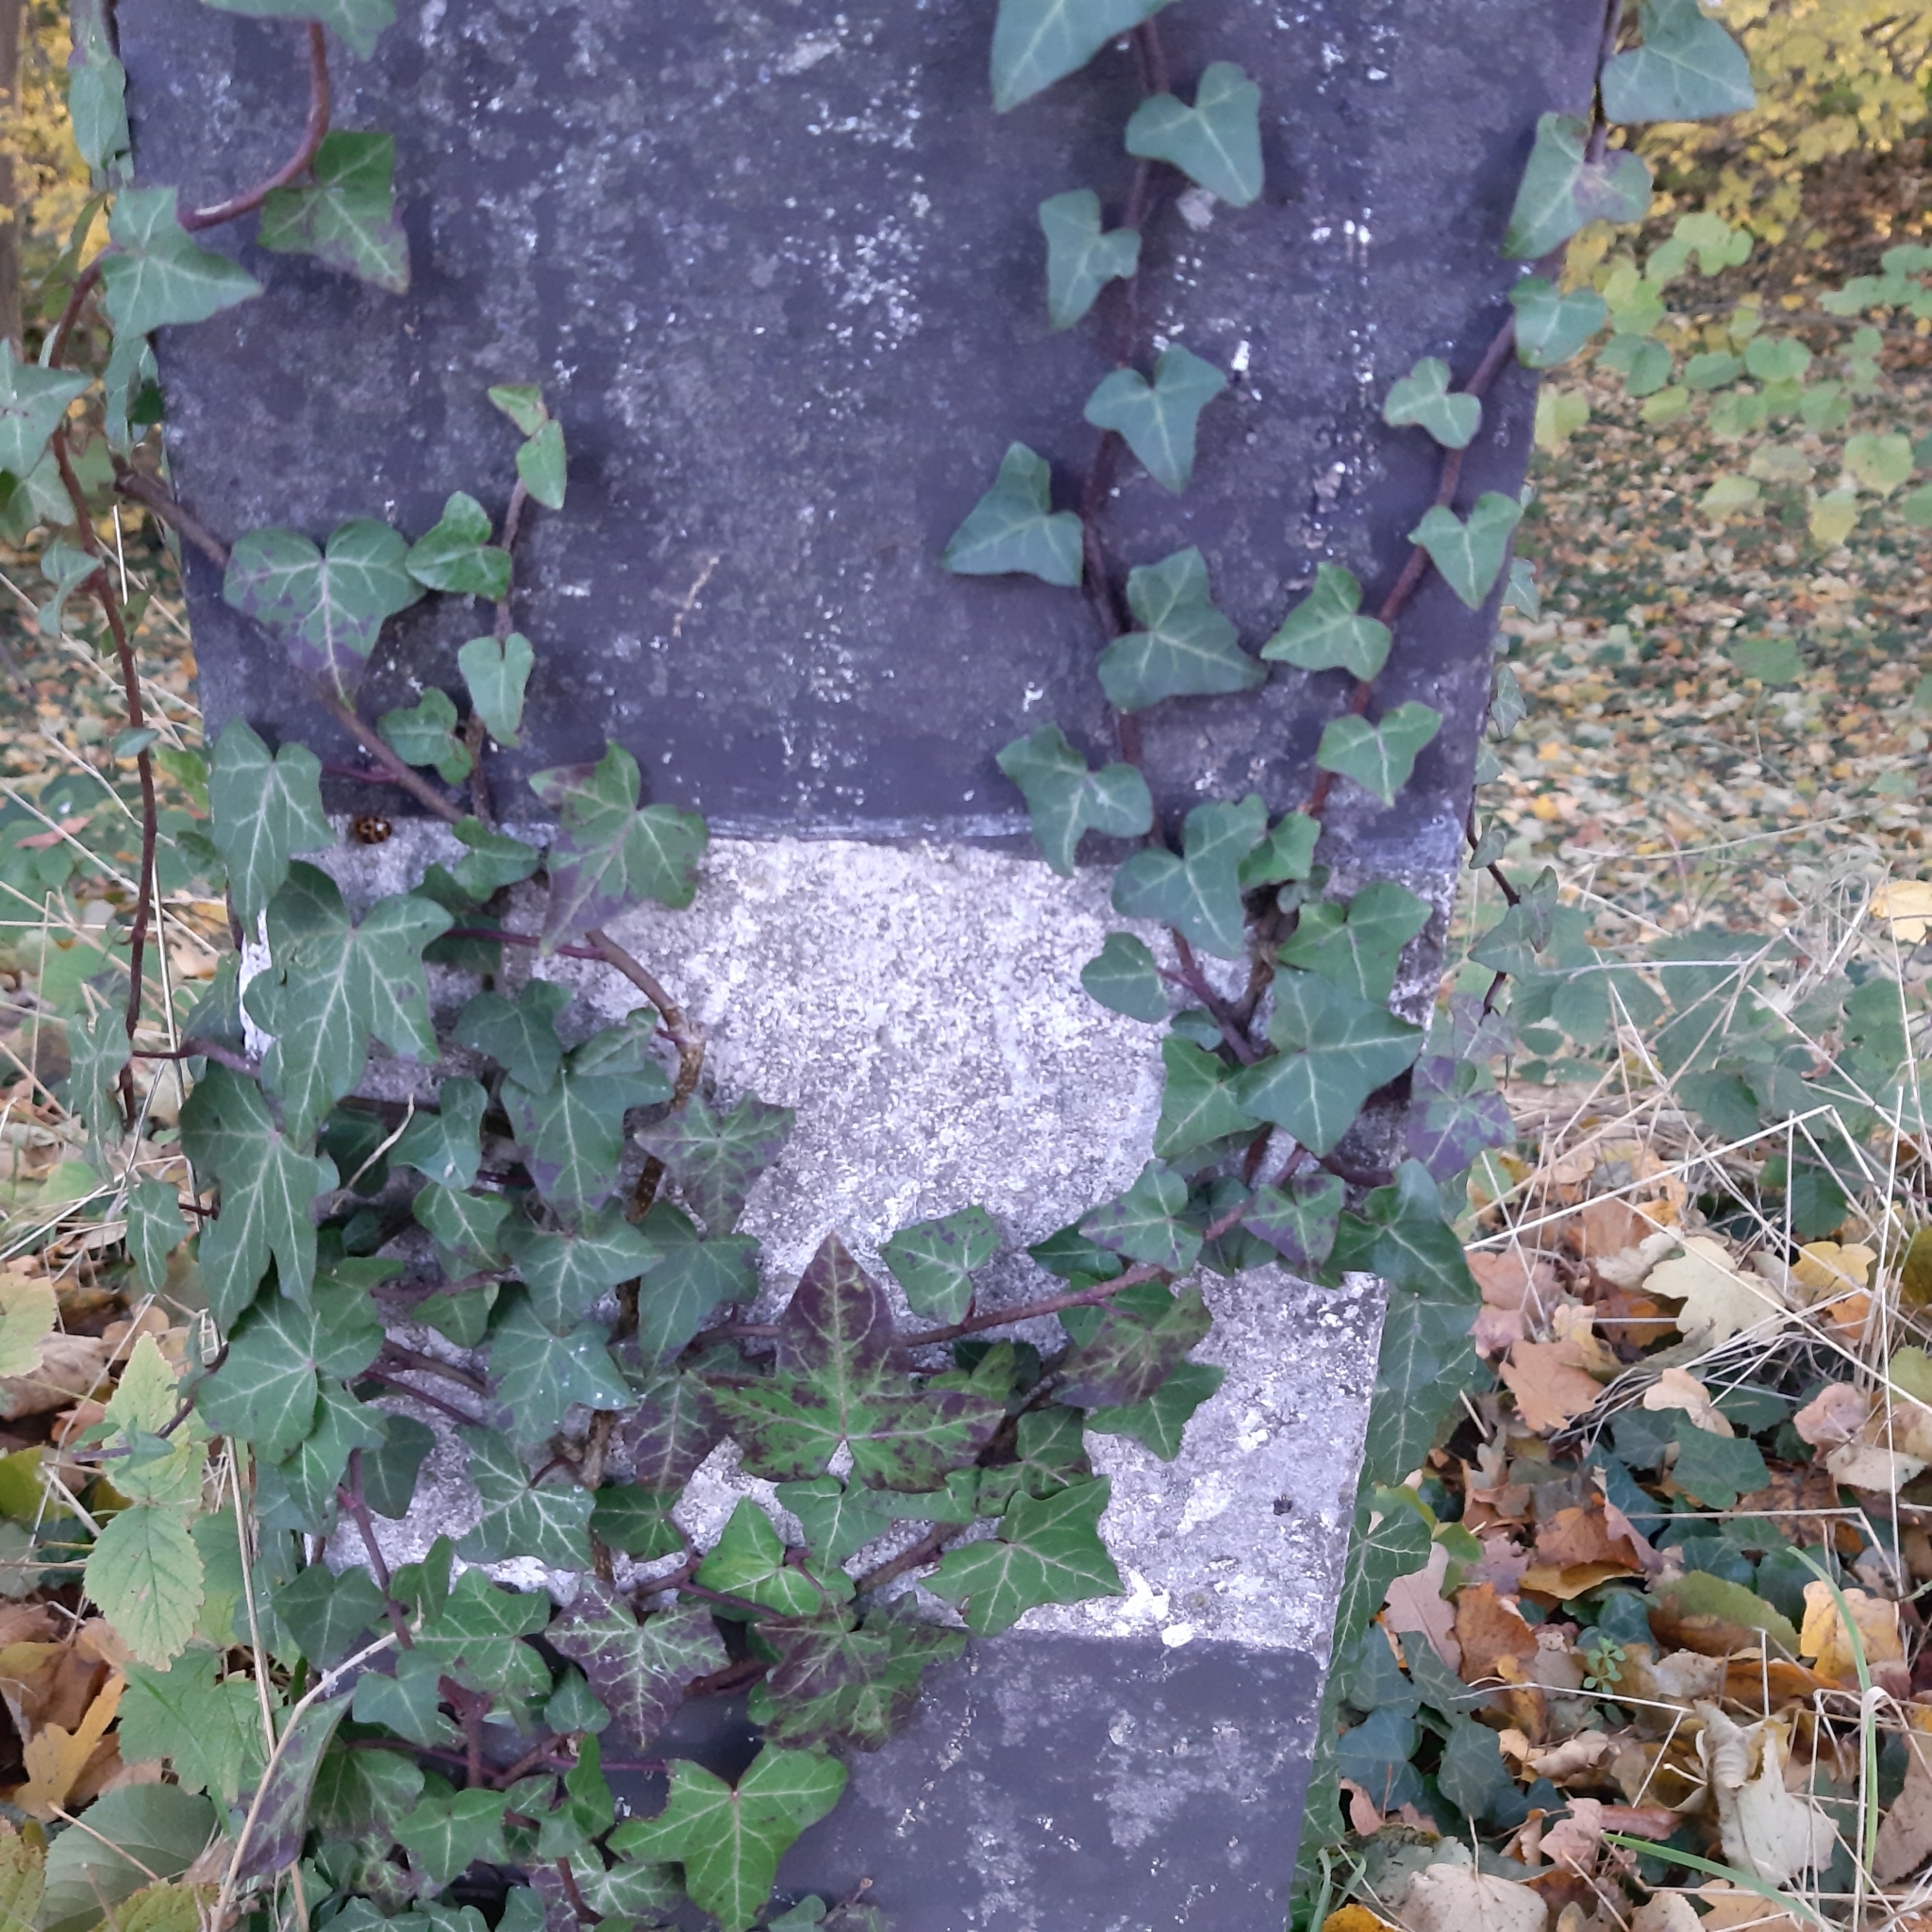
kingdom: Plantae
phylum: Tracheophyta
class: Magnoliopsida
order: Apiales
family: Araliaceae
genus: Hedera
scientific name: Hedera helix
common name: Ivy
